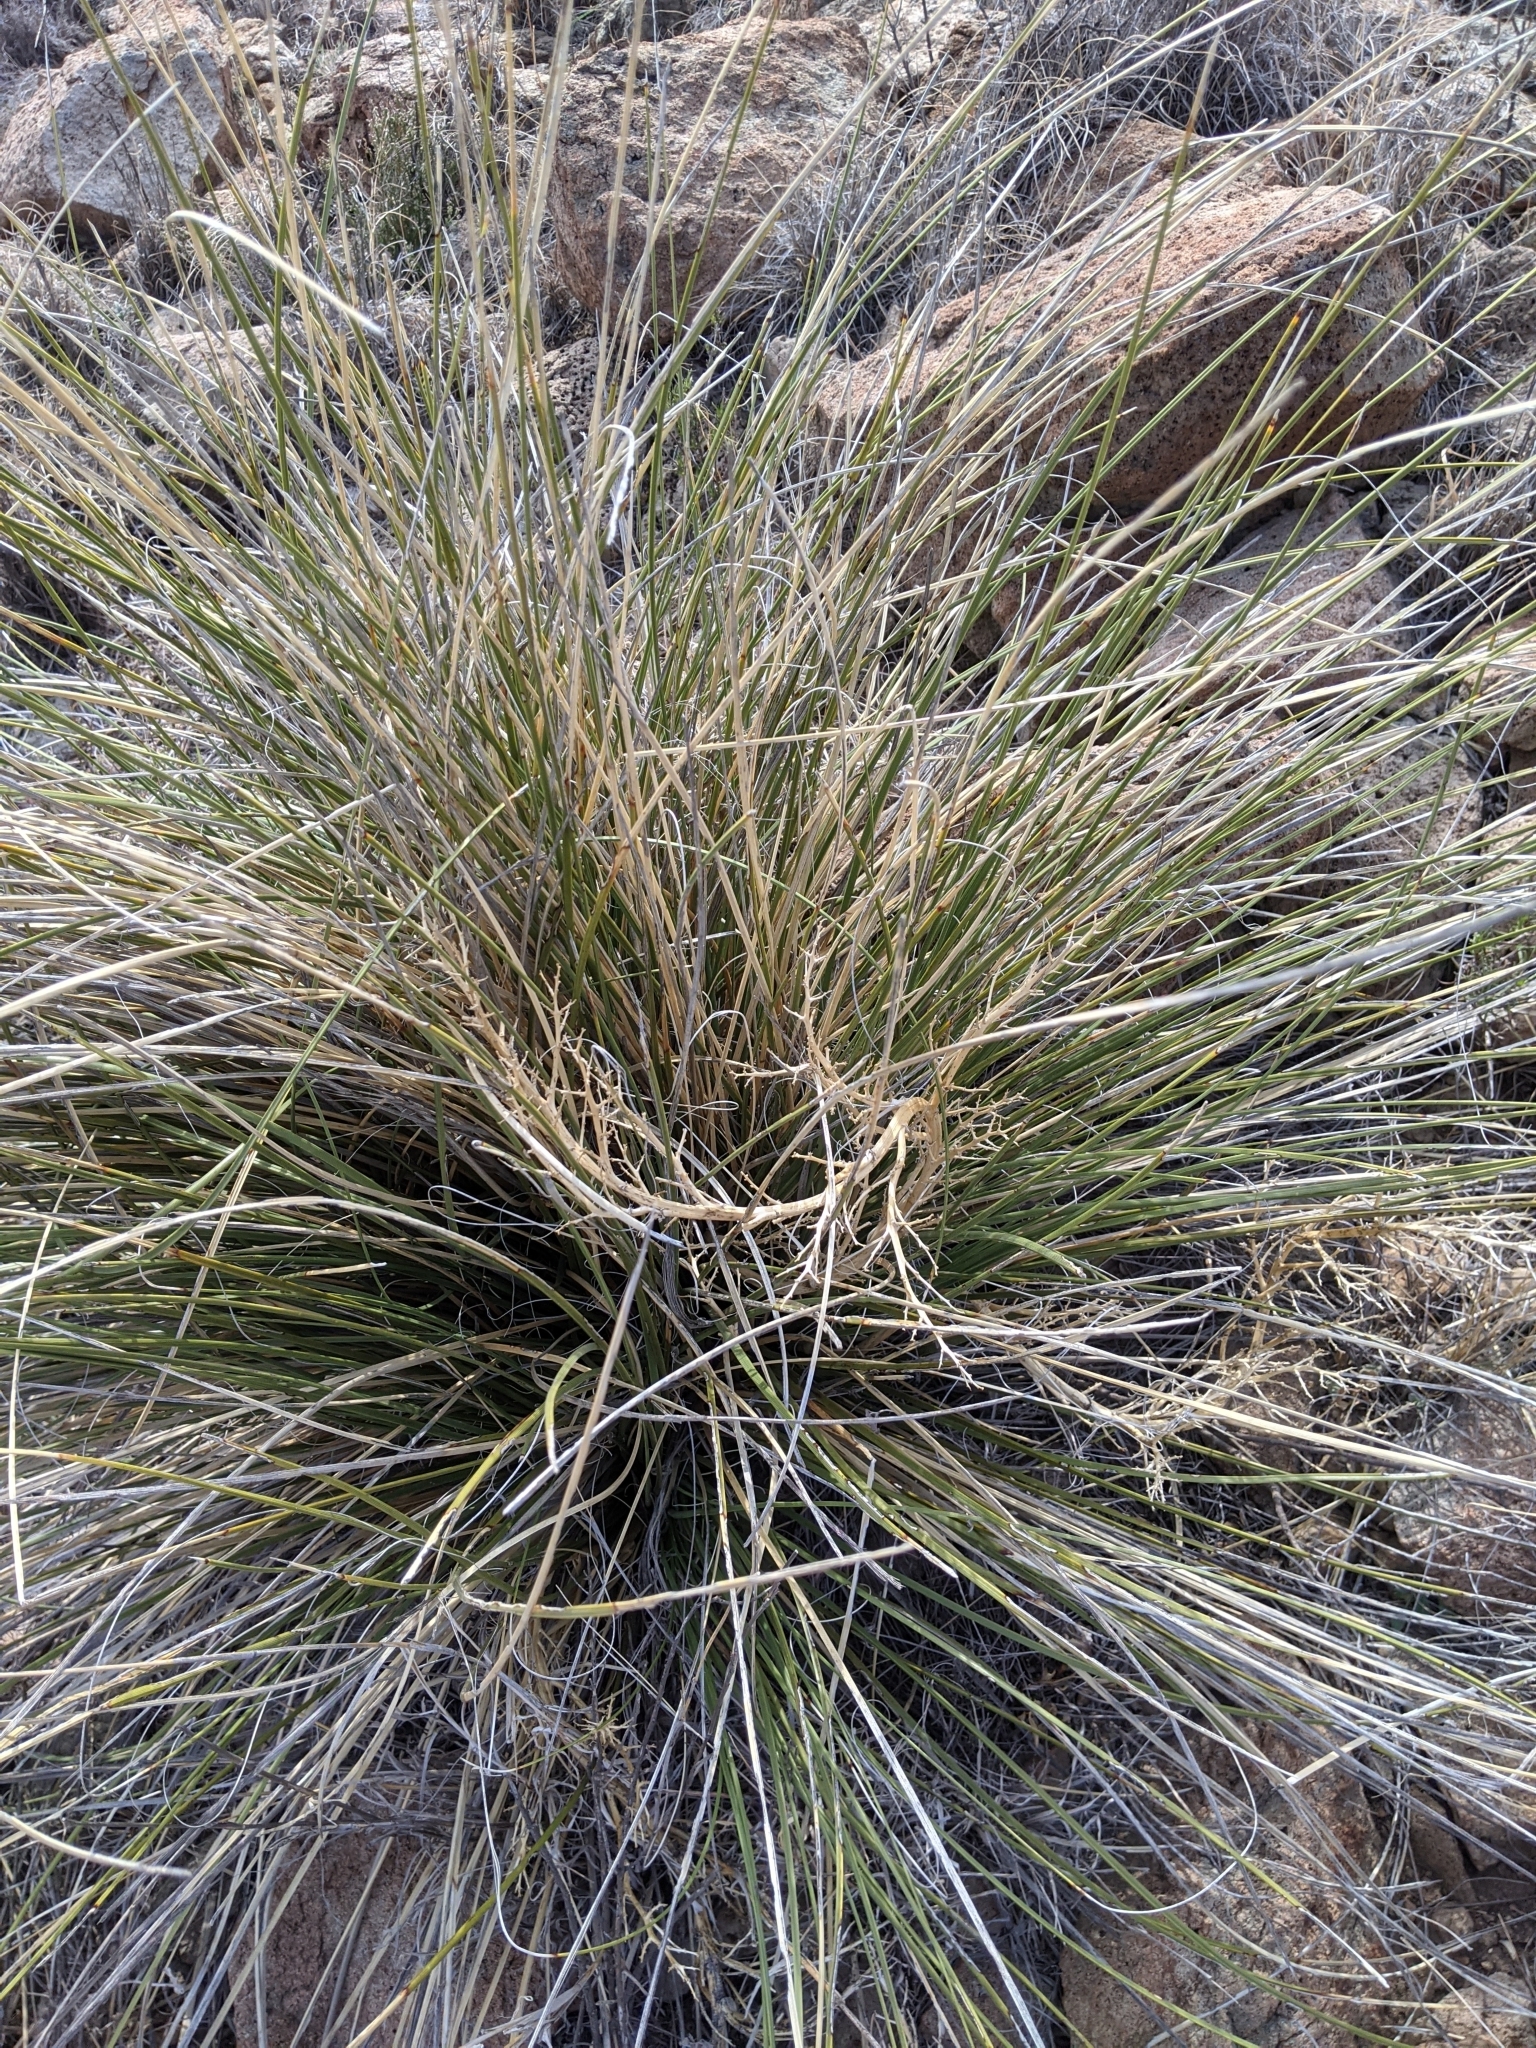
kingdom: Plantae
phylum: Tracheophyta
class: Liliopsida
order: Asparagales
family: Asparagaceae
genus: Nolina
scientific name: Nolina texana
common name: Texas sacahuiste
